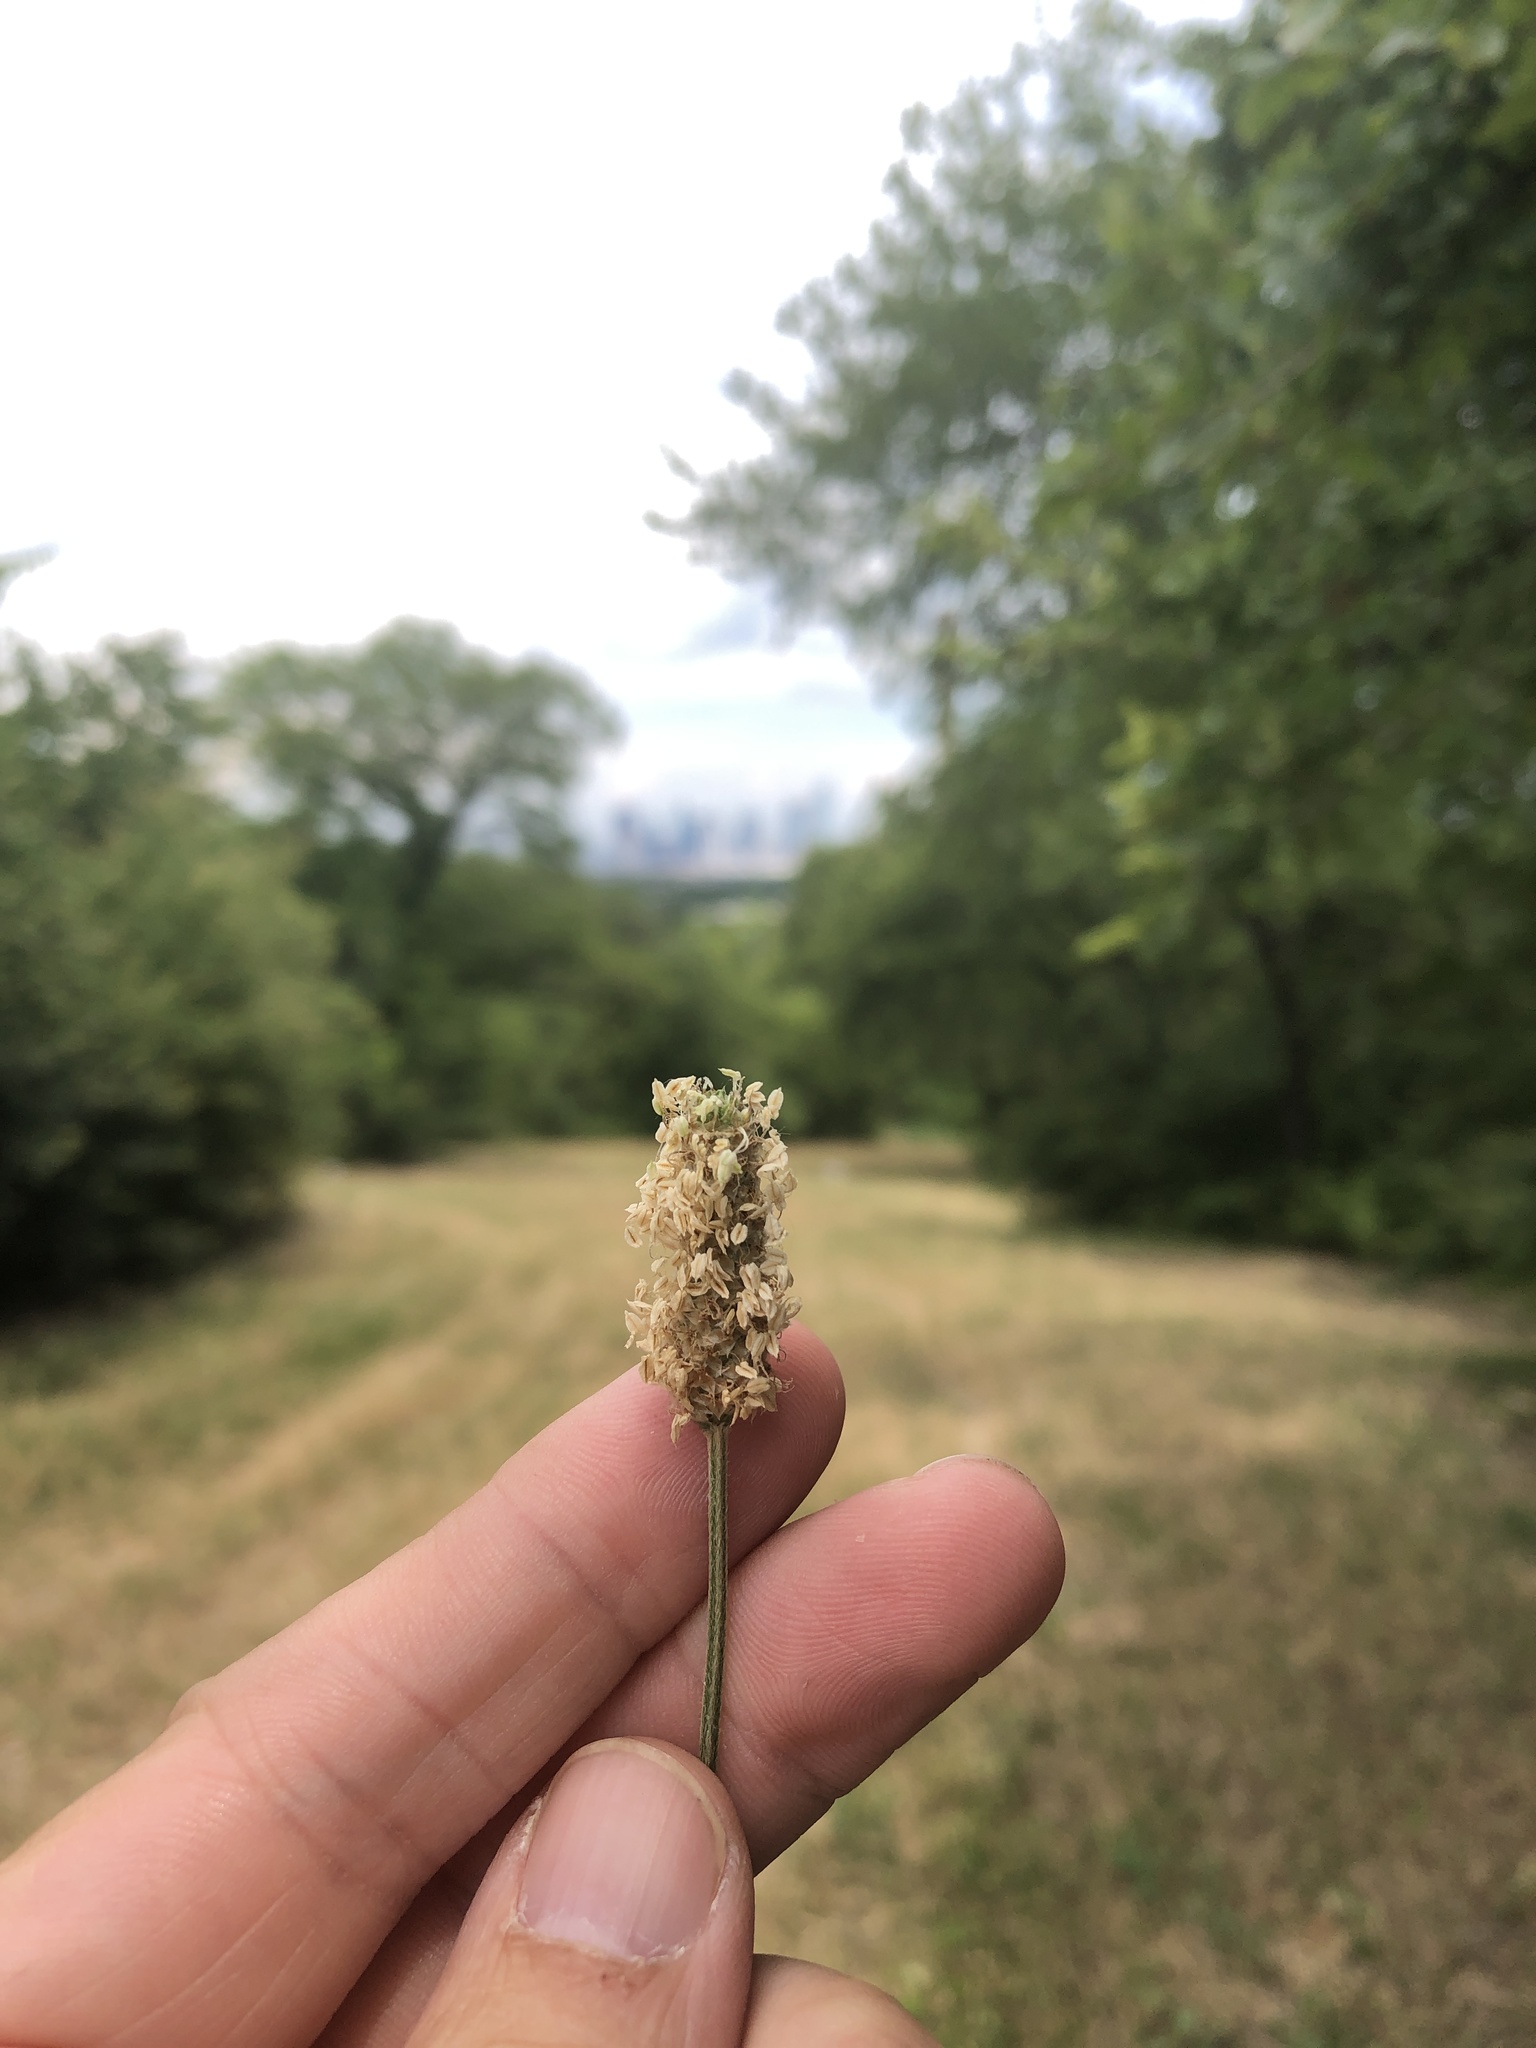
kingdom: Plantae
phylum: Tracheophyta
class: Magnoliopsida
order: Lamiales
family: Plantaginaceae
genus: Plantago
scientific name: Plantago lanceolata
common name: Ribwort plantain
